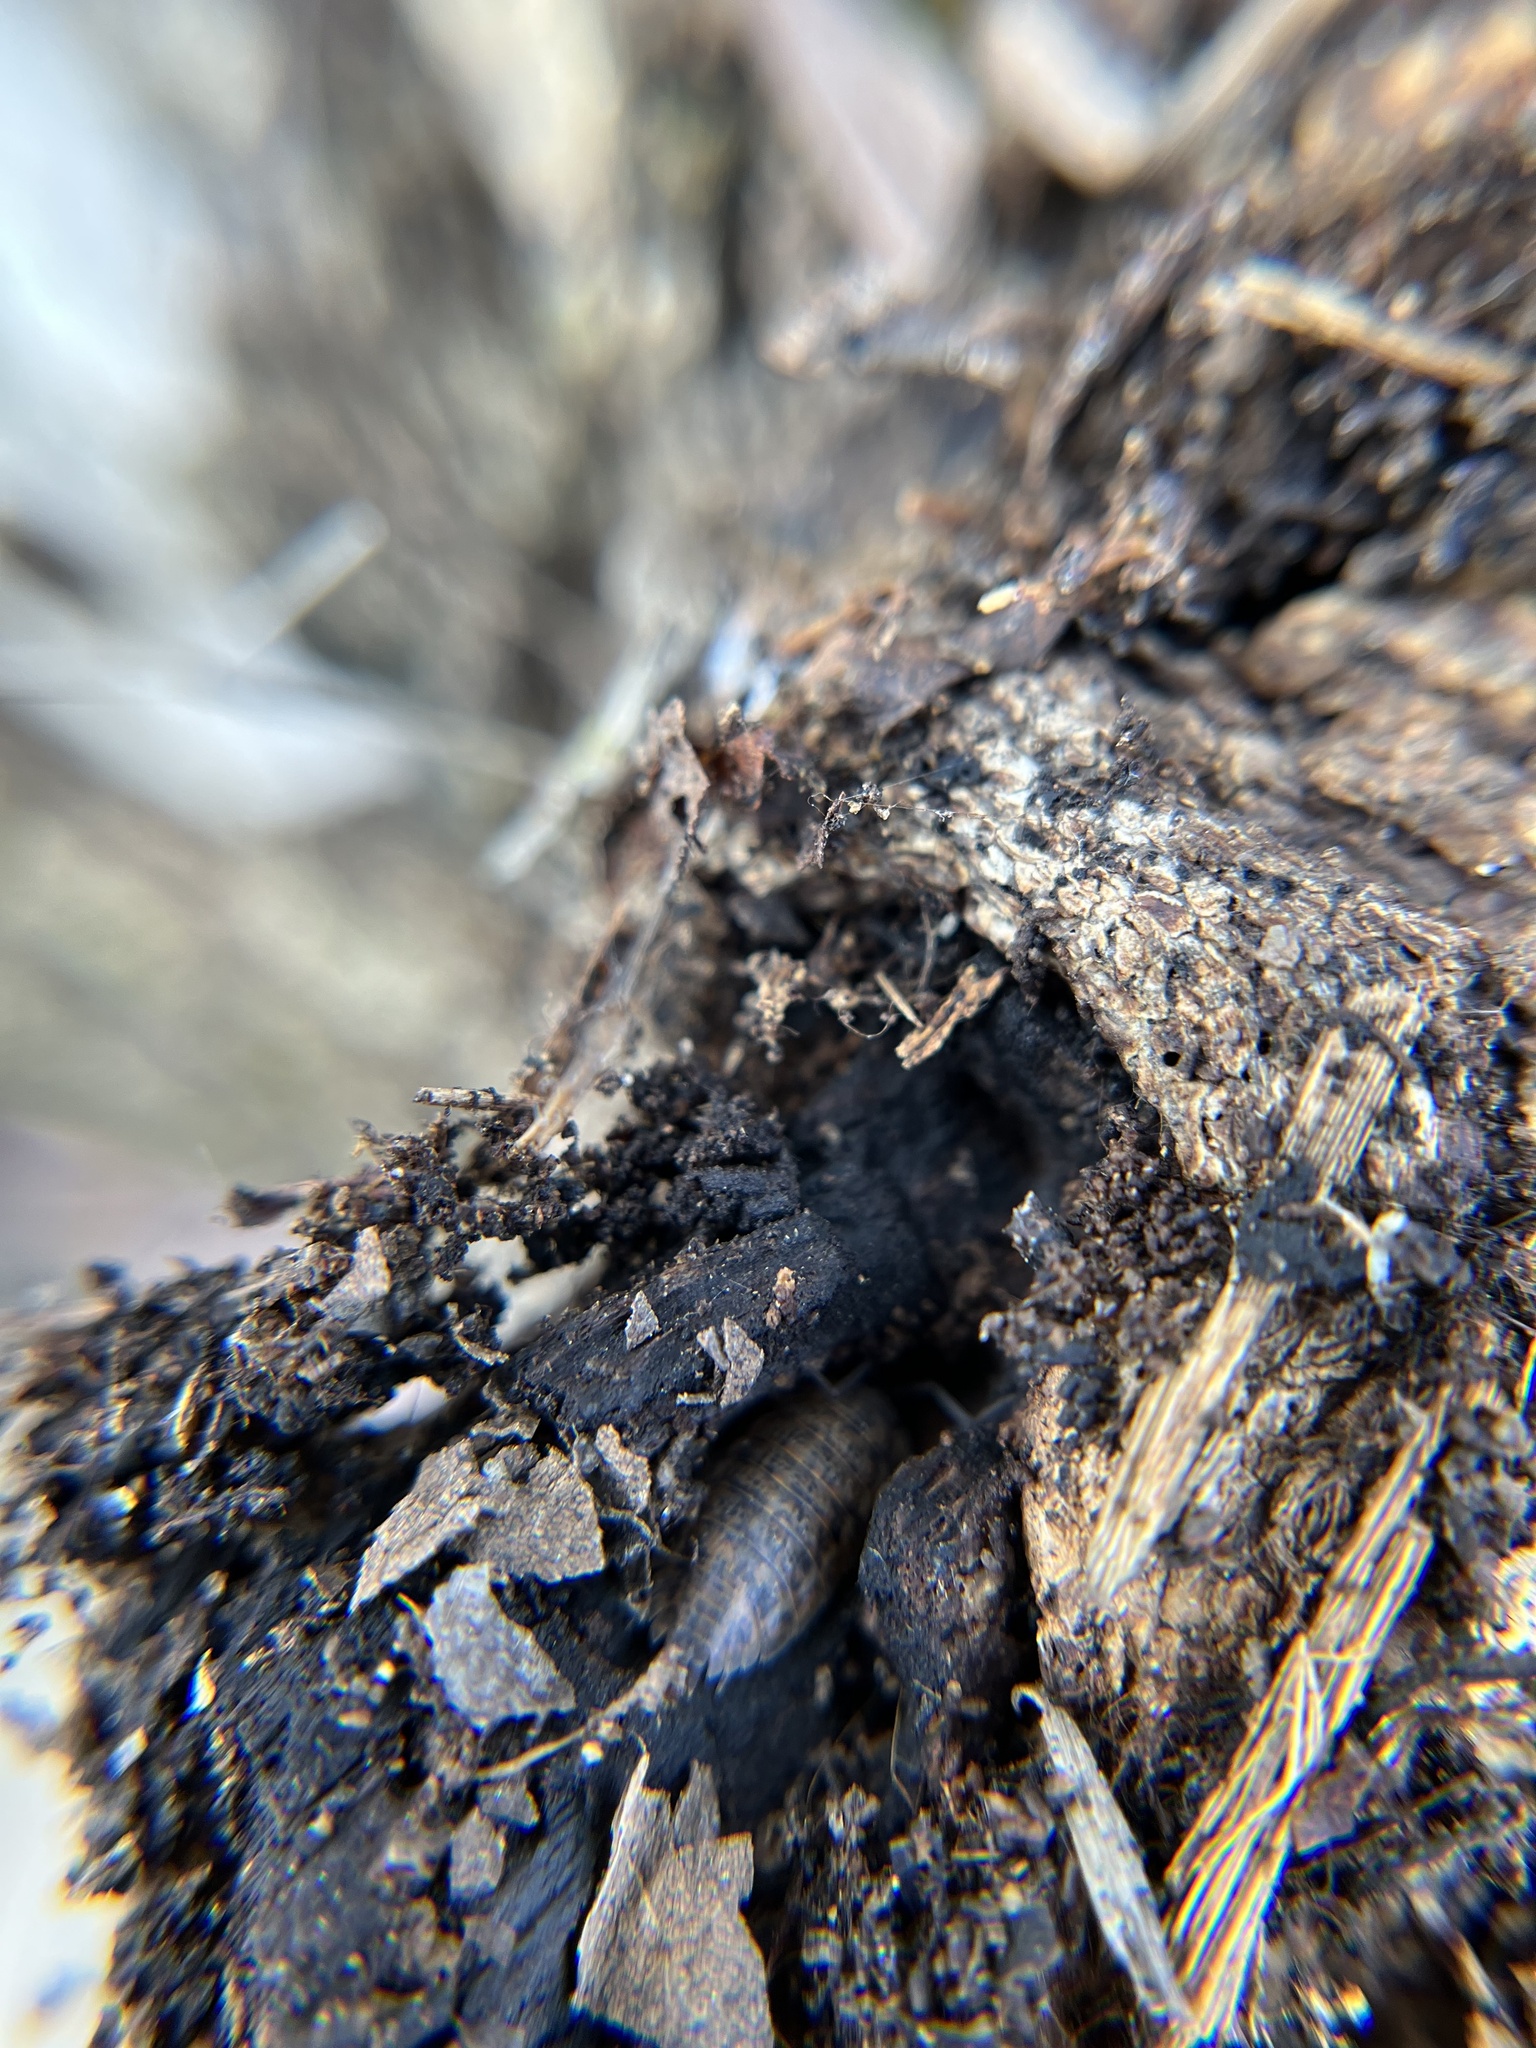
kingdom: Animalia
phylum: Arthropoda
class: Malacostraca
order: Isopoda
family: Trachelipodidae
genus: Trachelipus
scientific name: Trachelipus rathkii
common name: Isopod
